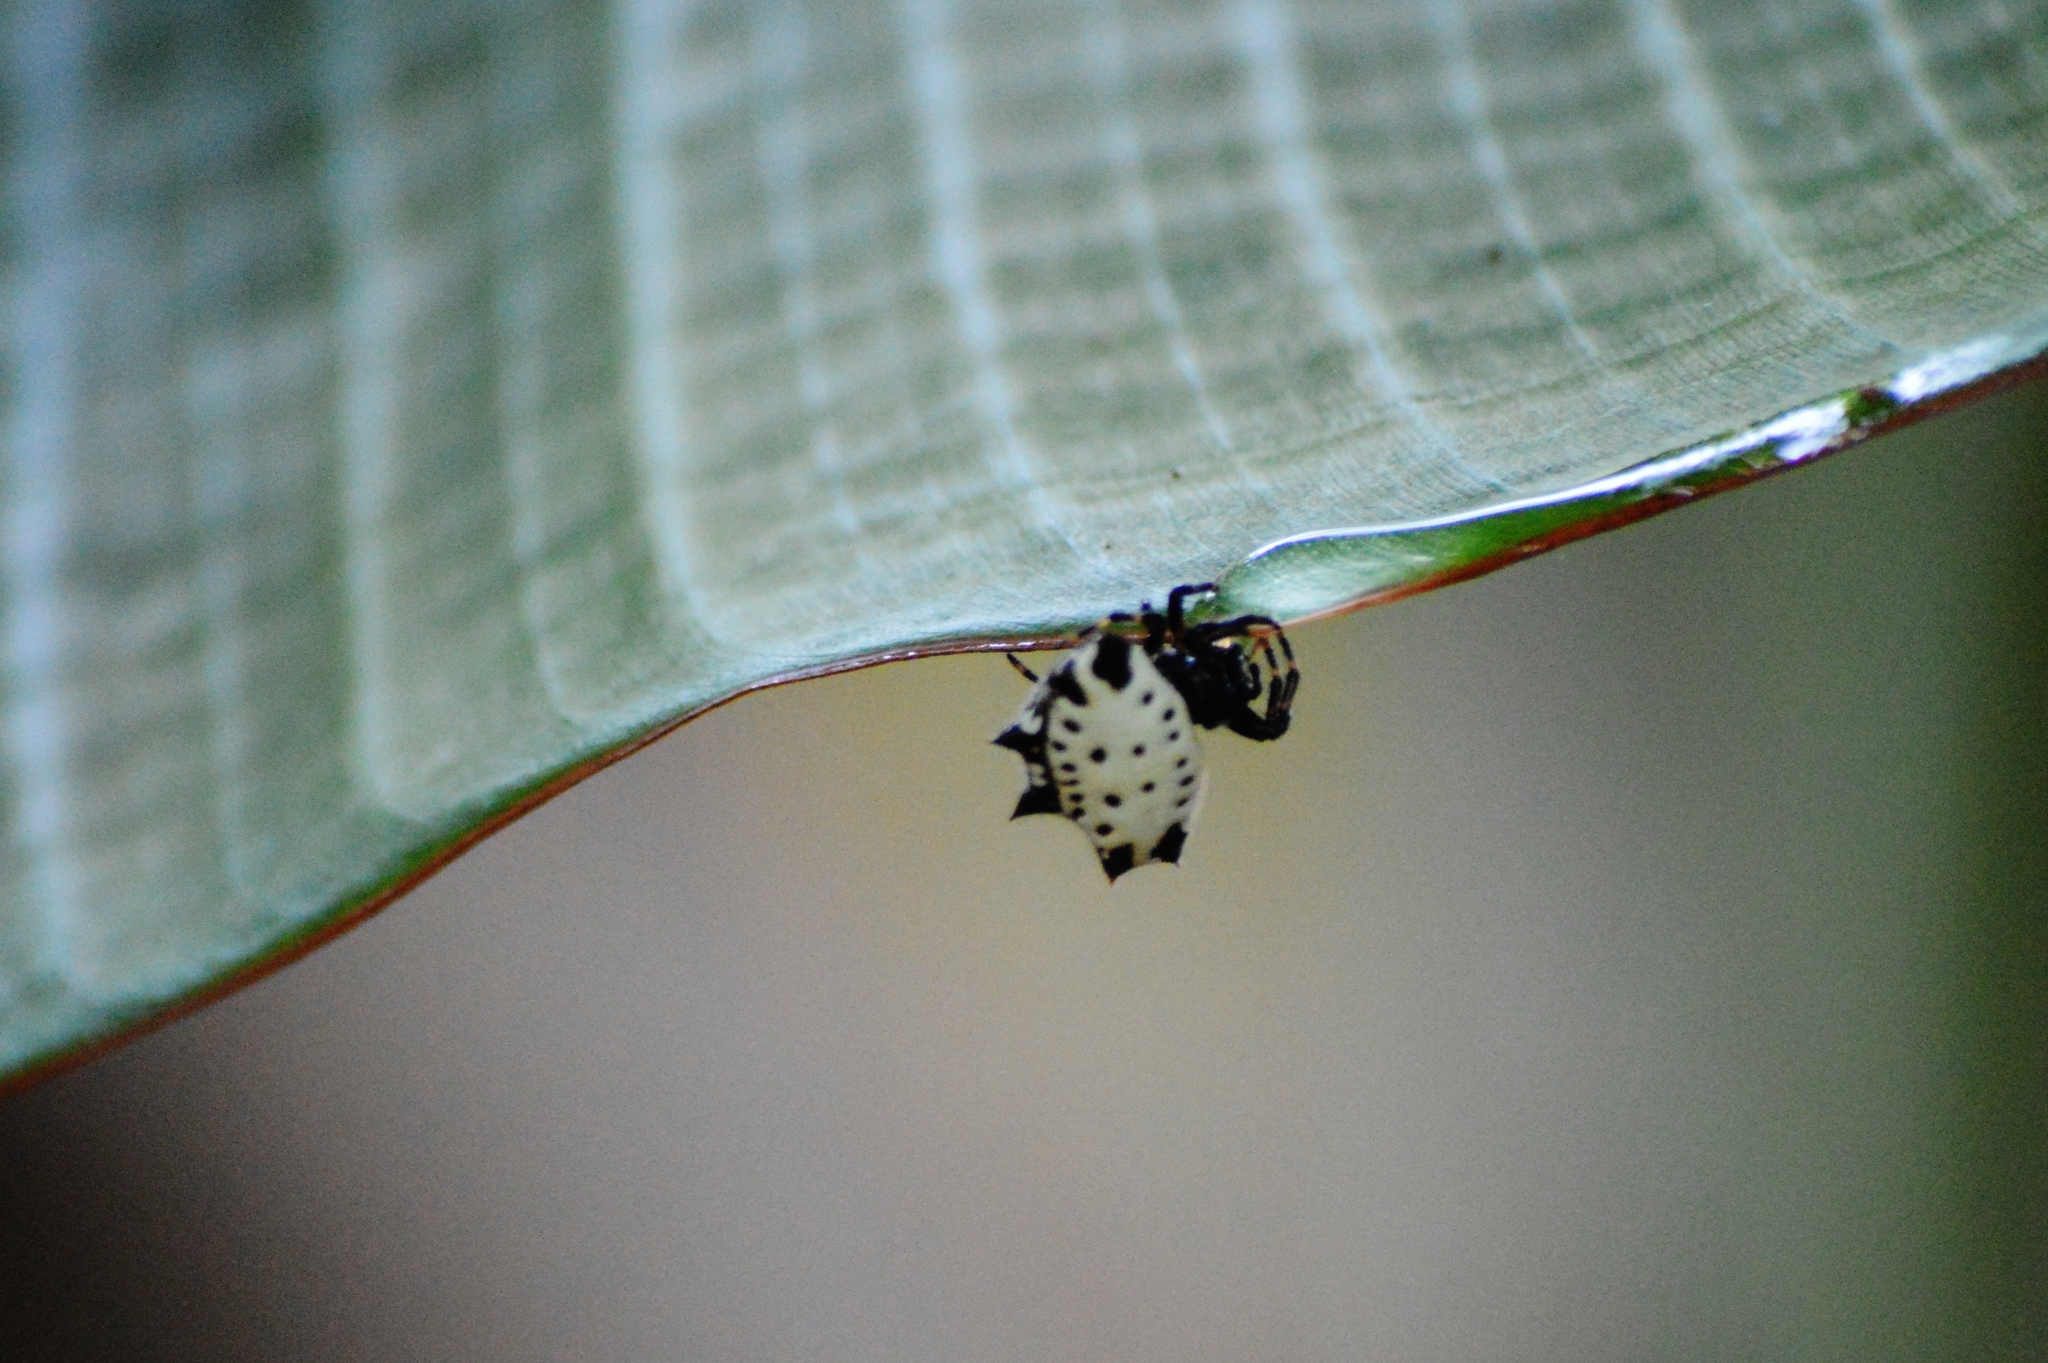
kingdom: Animalia
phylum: Arthropoda
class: Arachnida
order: Araneae
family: Araneidae
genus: Gasteracantha
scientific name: Gasteracantha cancriformis
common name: Orb weavers
